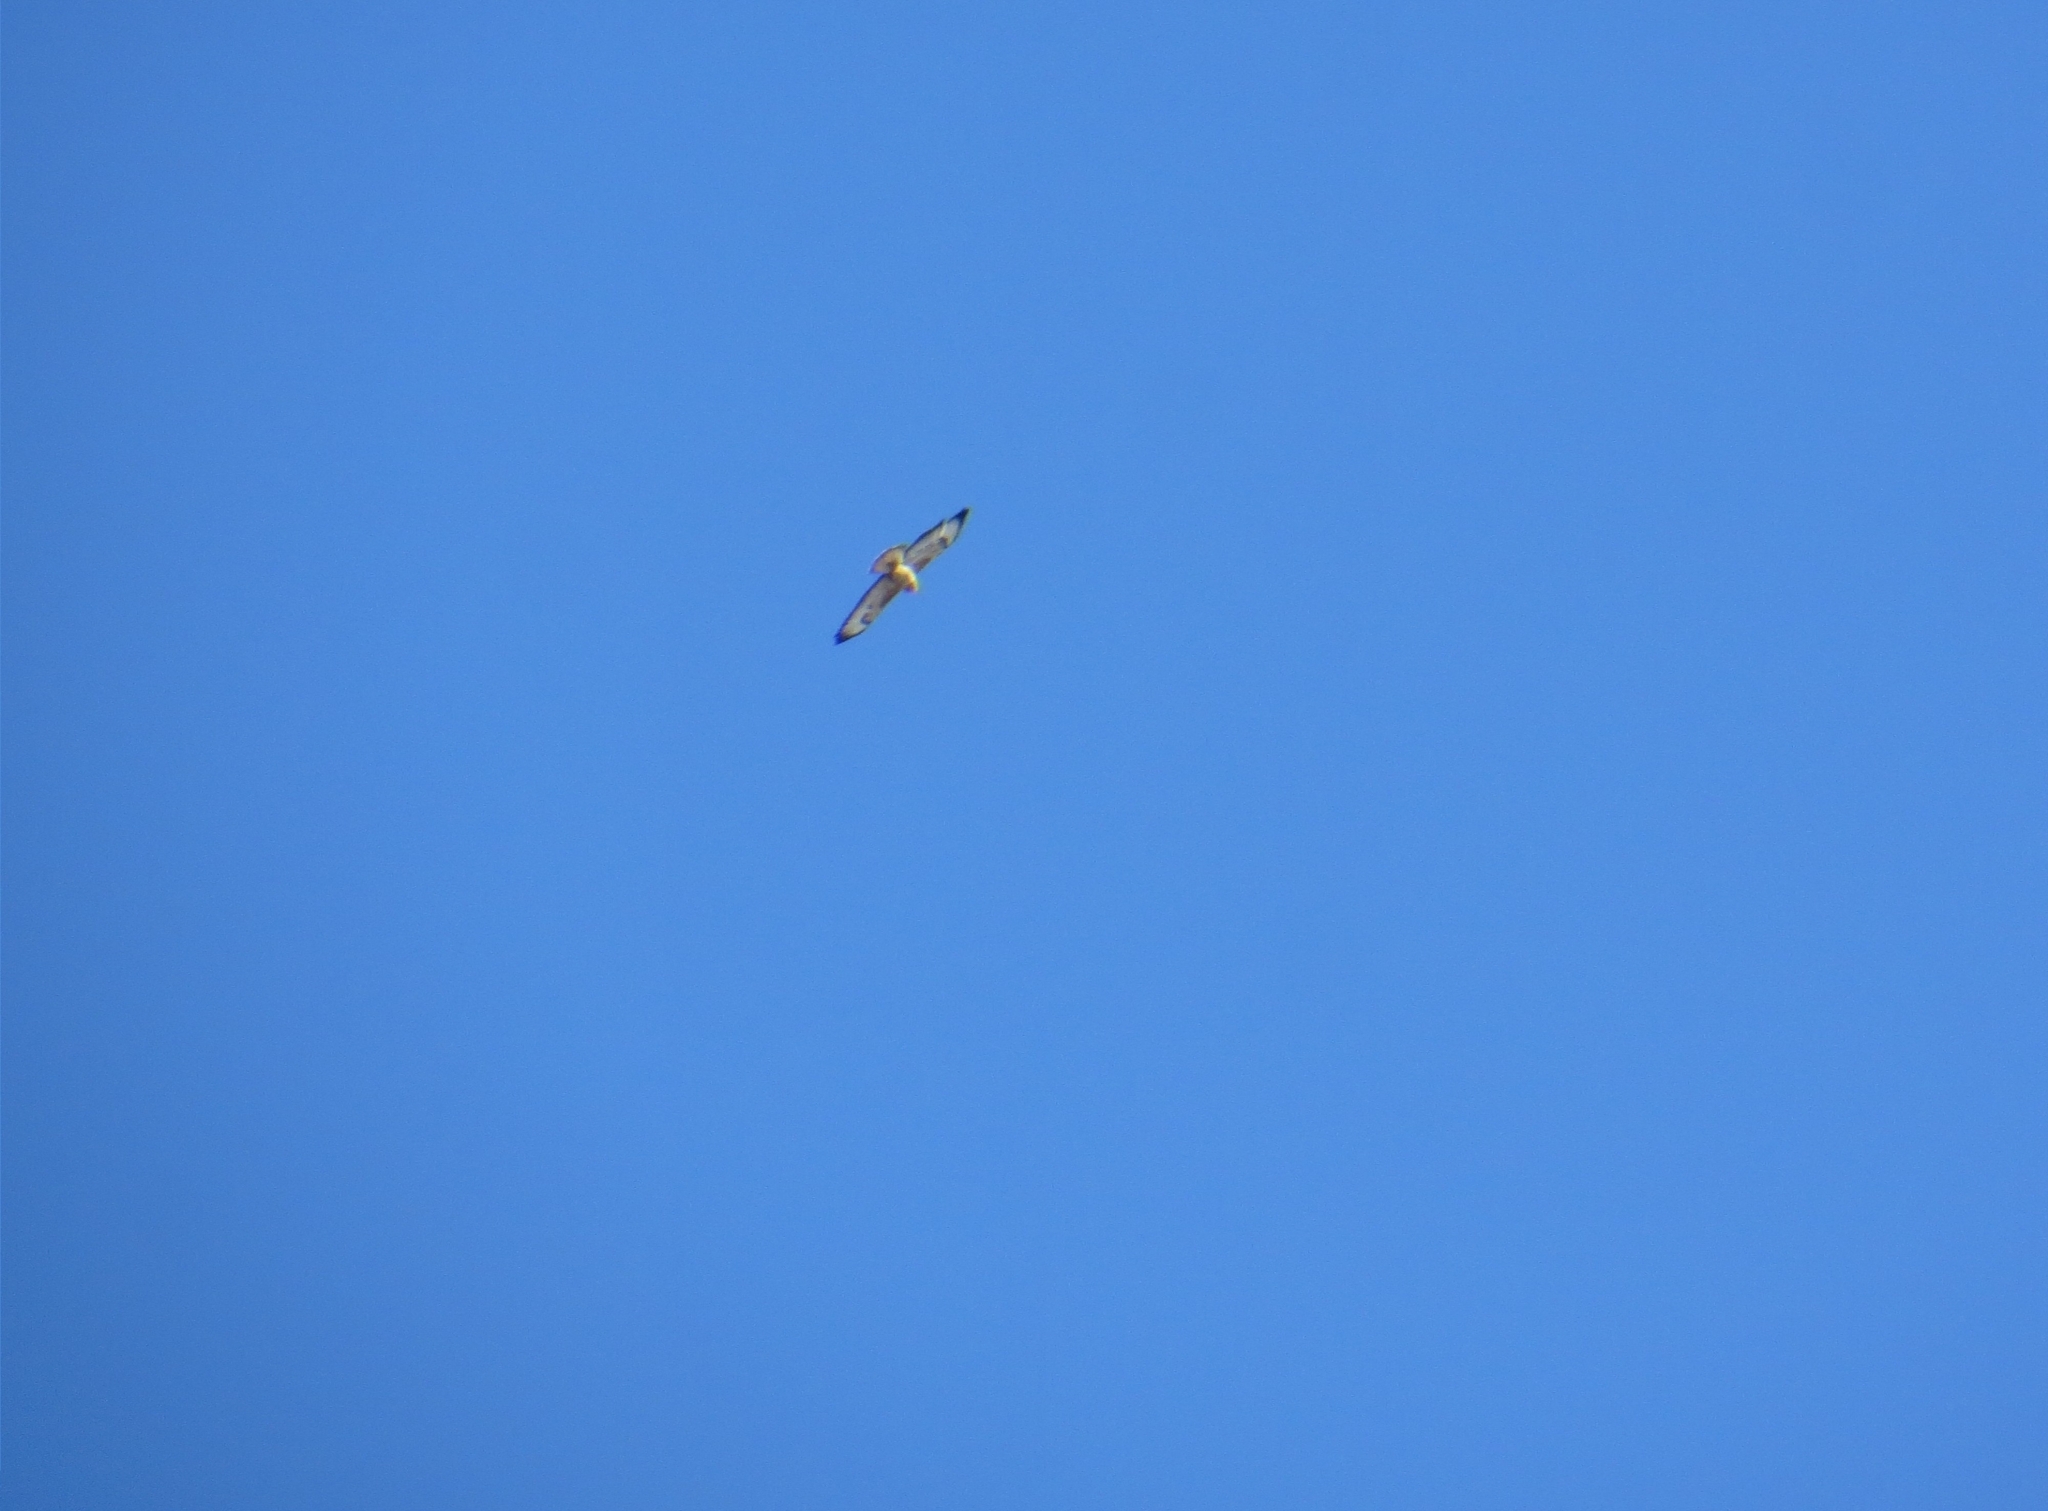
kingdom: Animalia
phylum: Chordata
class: Aves
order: Accipitriformes
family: Accipitridae
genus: Buteo
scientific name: Buteo buteo
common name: Common buzzard
